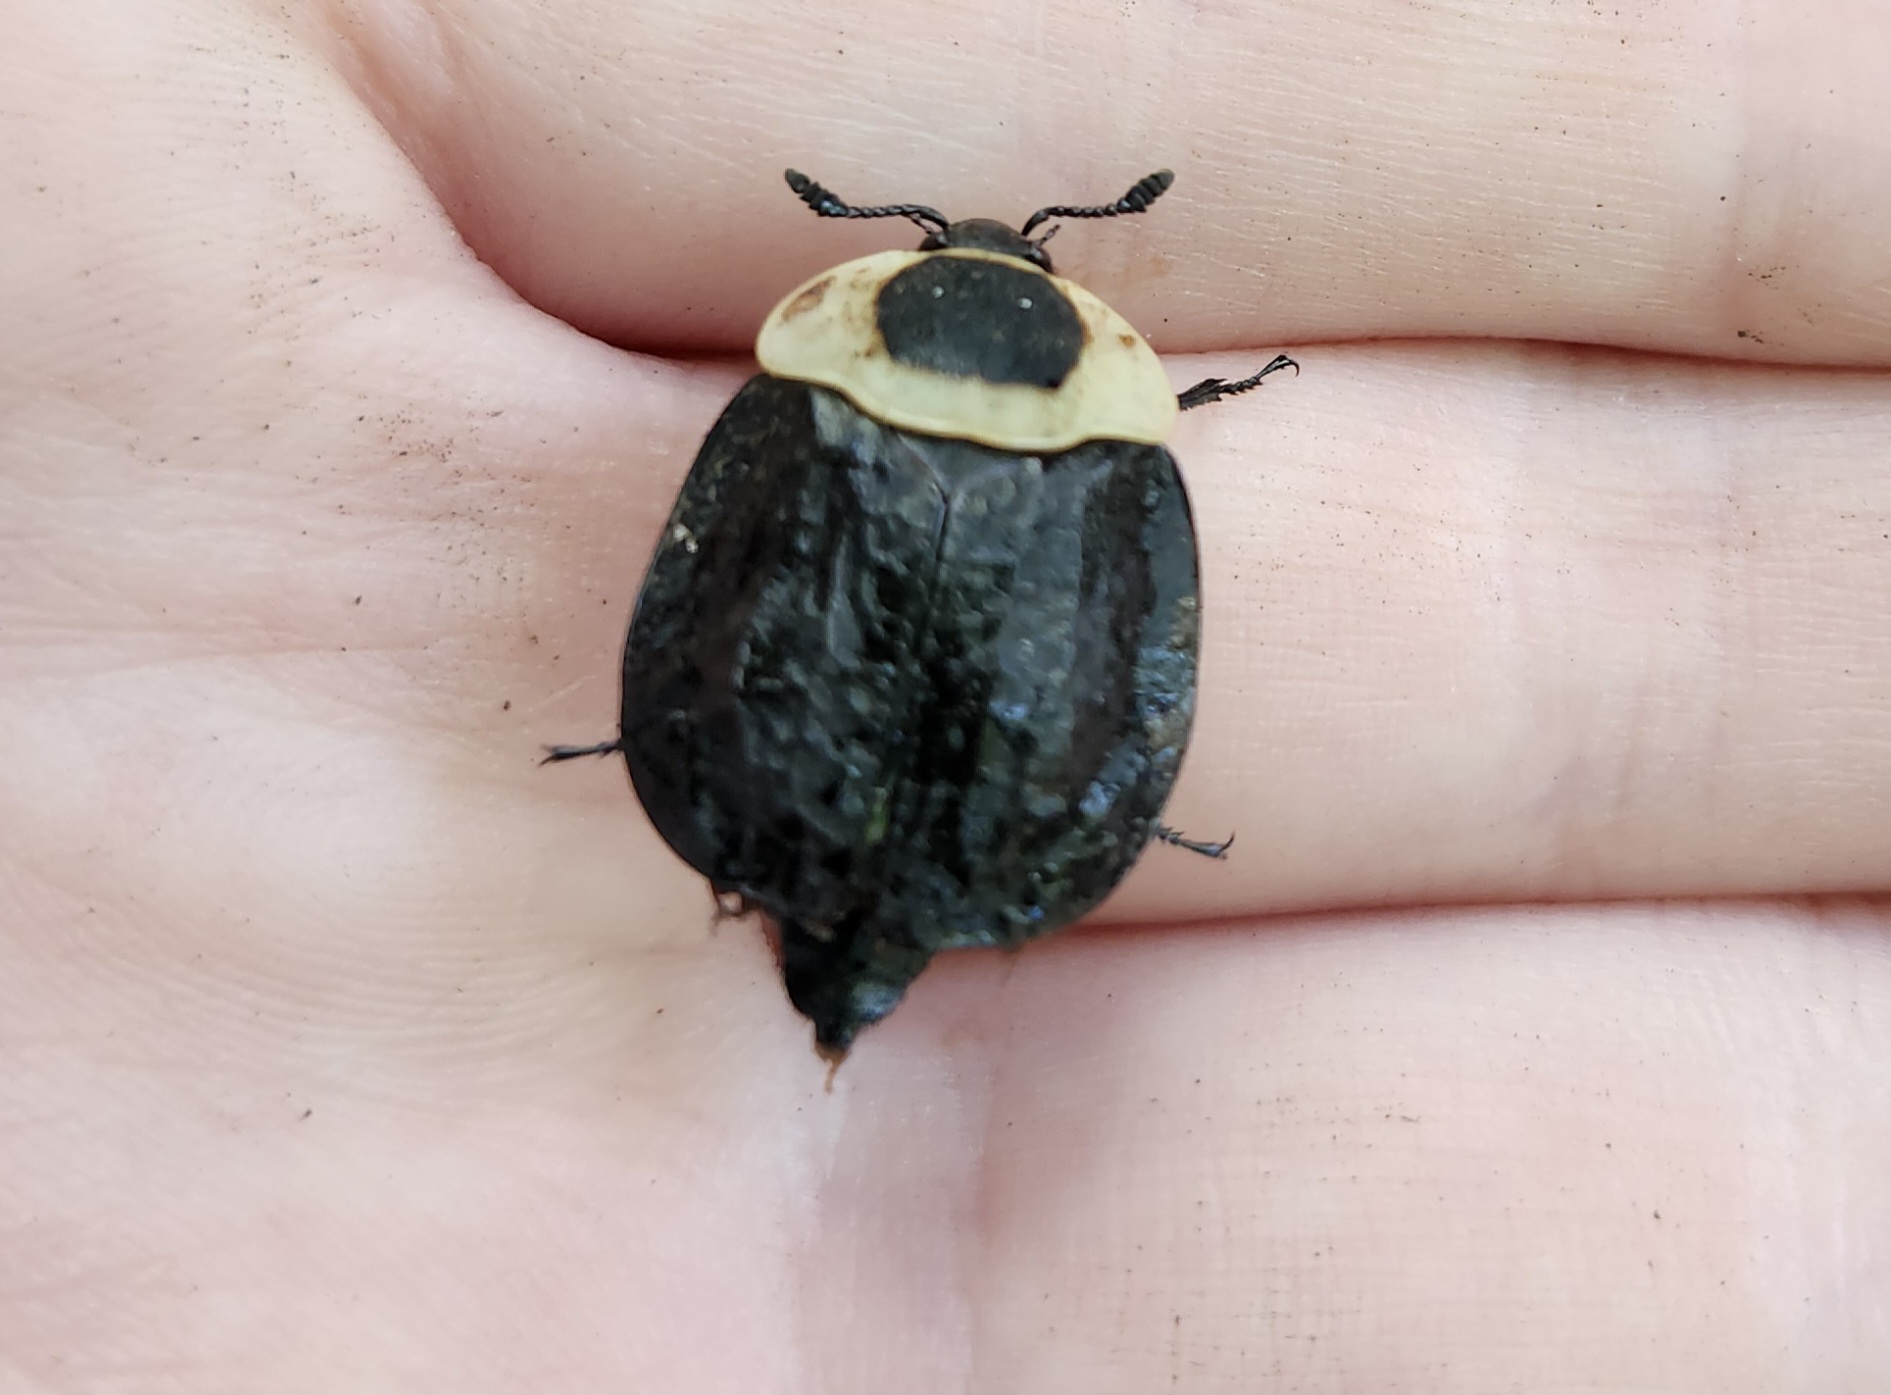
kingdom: Animalia
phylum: Arthropoda
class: Insecta
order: Coleoptera
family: Staphylinidae
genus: Necrophila
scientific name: Necrophila americana
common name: American carrion beetle
